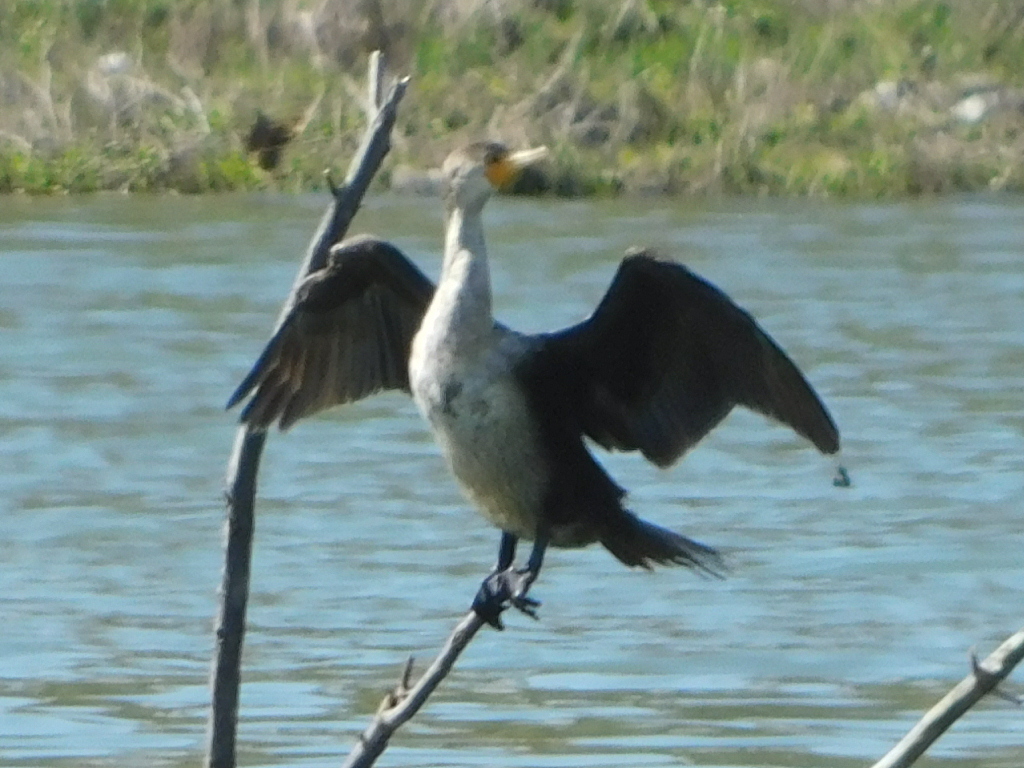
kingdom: Animalia
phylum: Chordata
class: Aves
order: Suliformes
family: Phalacrocoracidae
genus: Phalacrocorax
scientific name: Phalacrocorax auritus
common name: Double-crested cormorant
